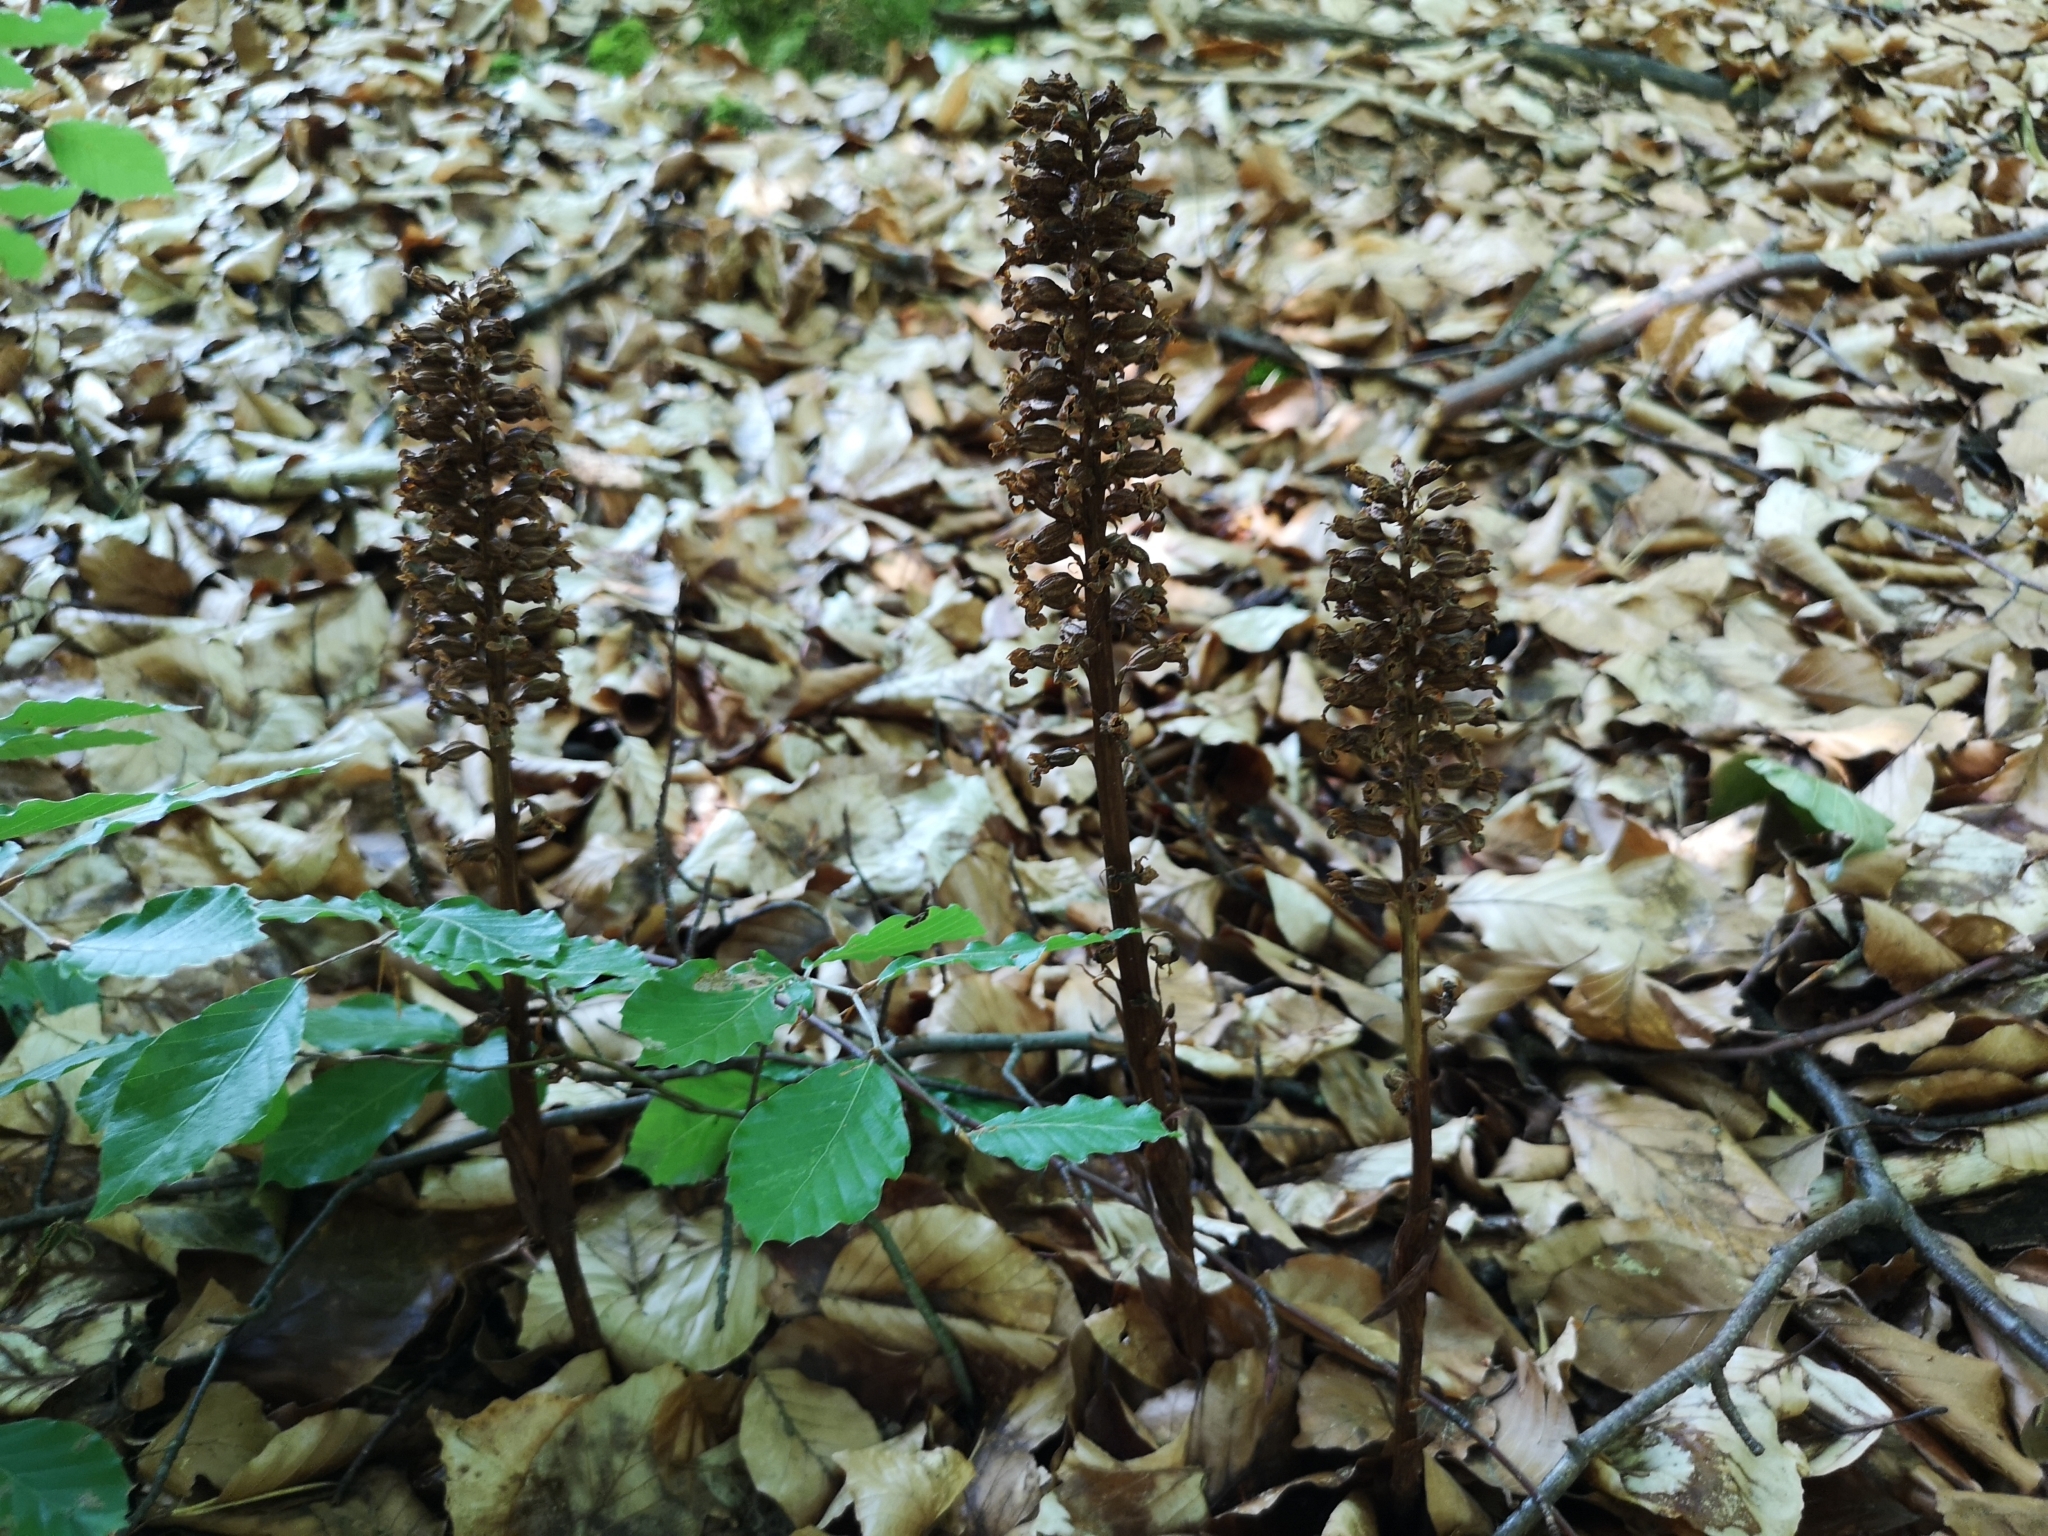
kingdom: Plantae
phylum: Tracheophyta
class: Liliopsida
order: Asparagales
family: Orchidaceae
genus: Neottia
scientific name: Neottia nidus-avis
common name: Bird's-nest orchid
